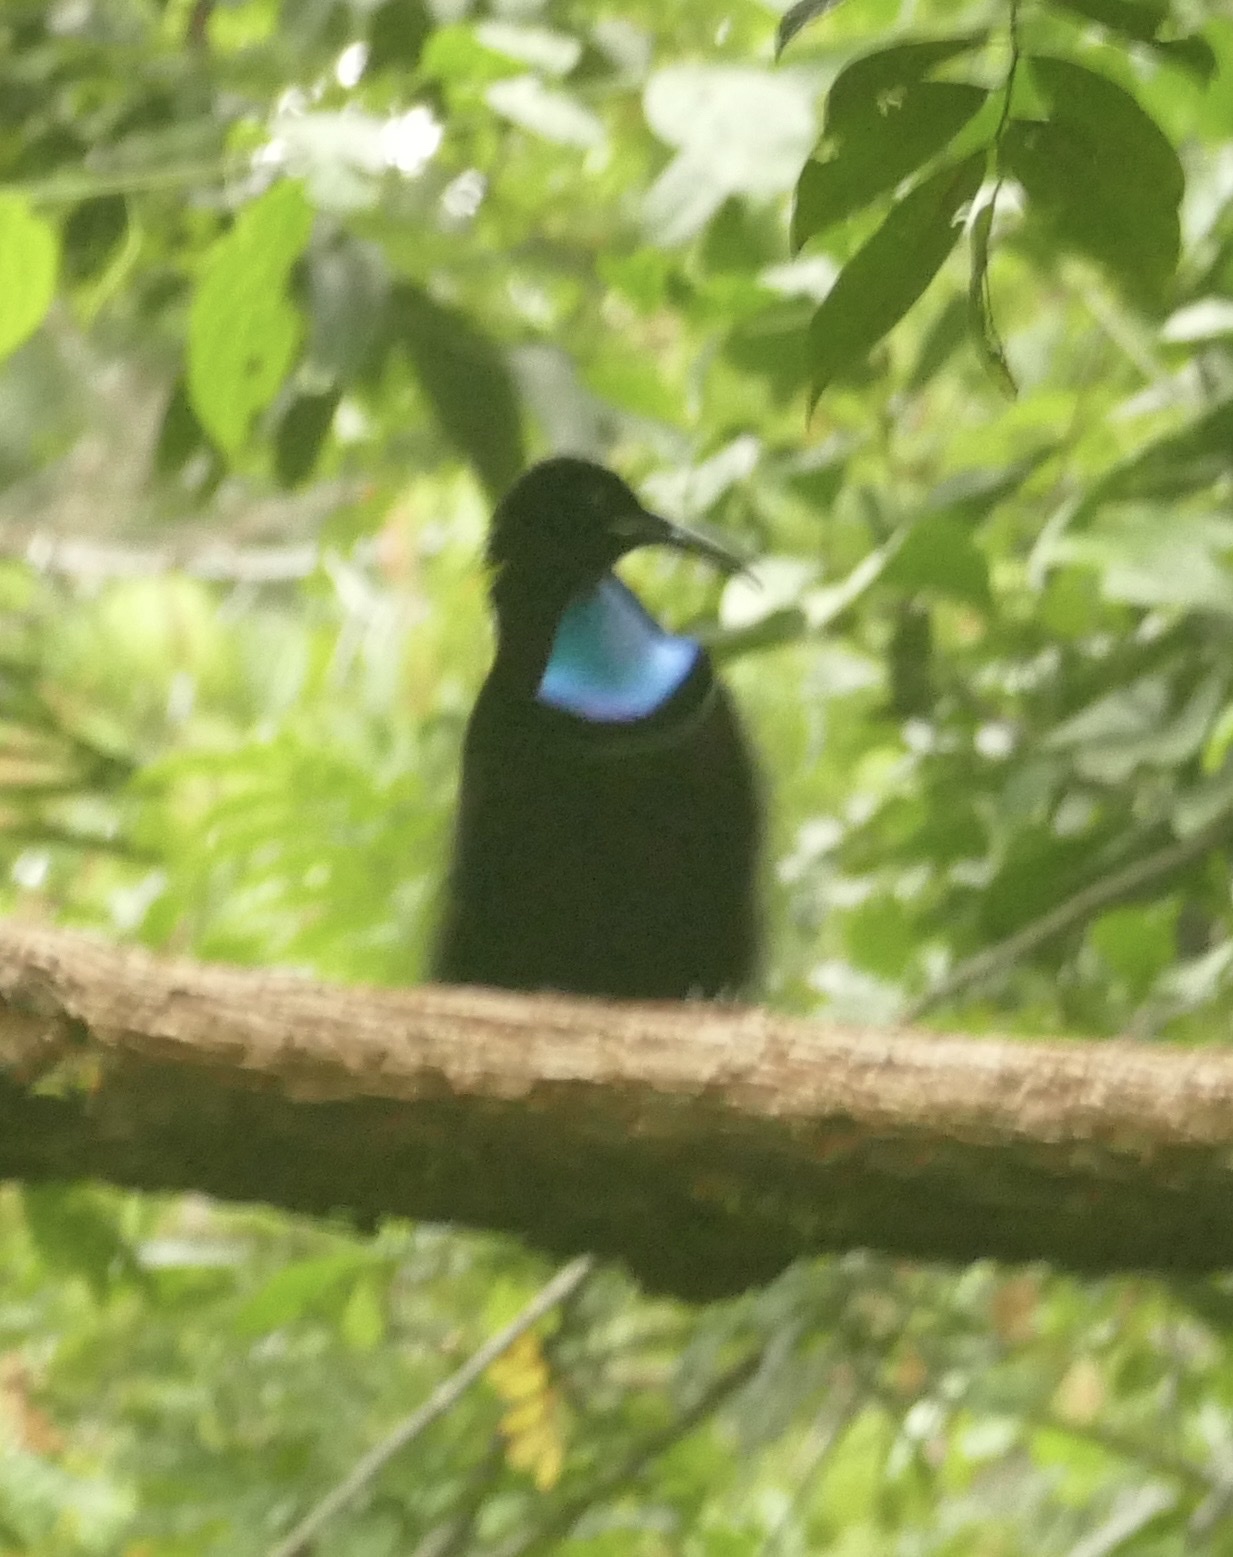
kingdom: Animalia
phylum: Chordata
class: Aves
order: Passeriformes
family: Paradisaeidae
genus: Ptiloris
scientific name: Ptiloris magnificus
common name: Magnificent riflebird
